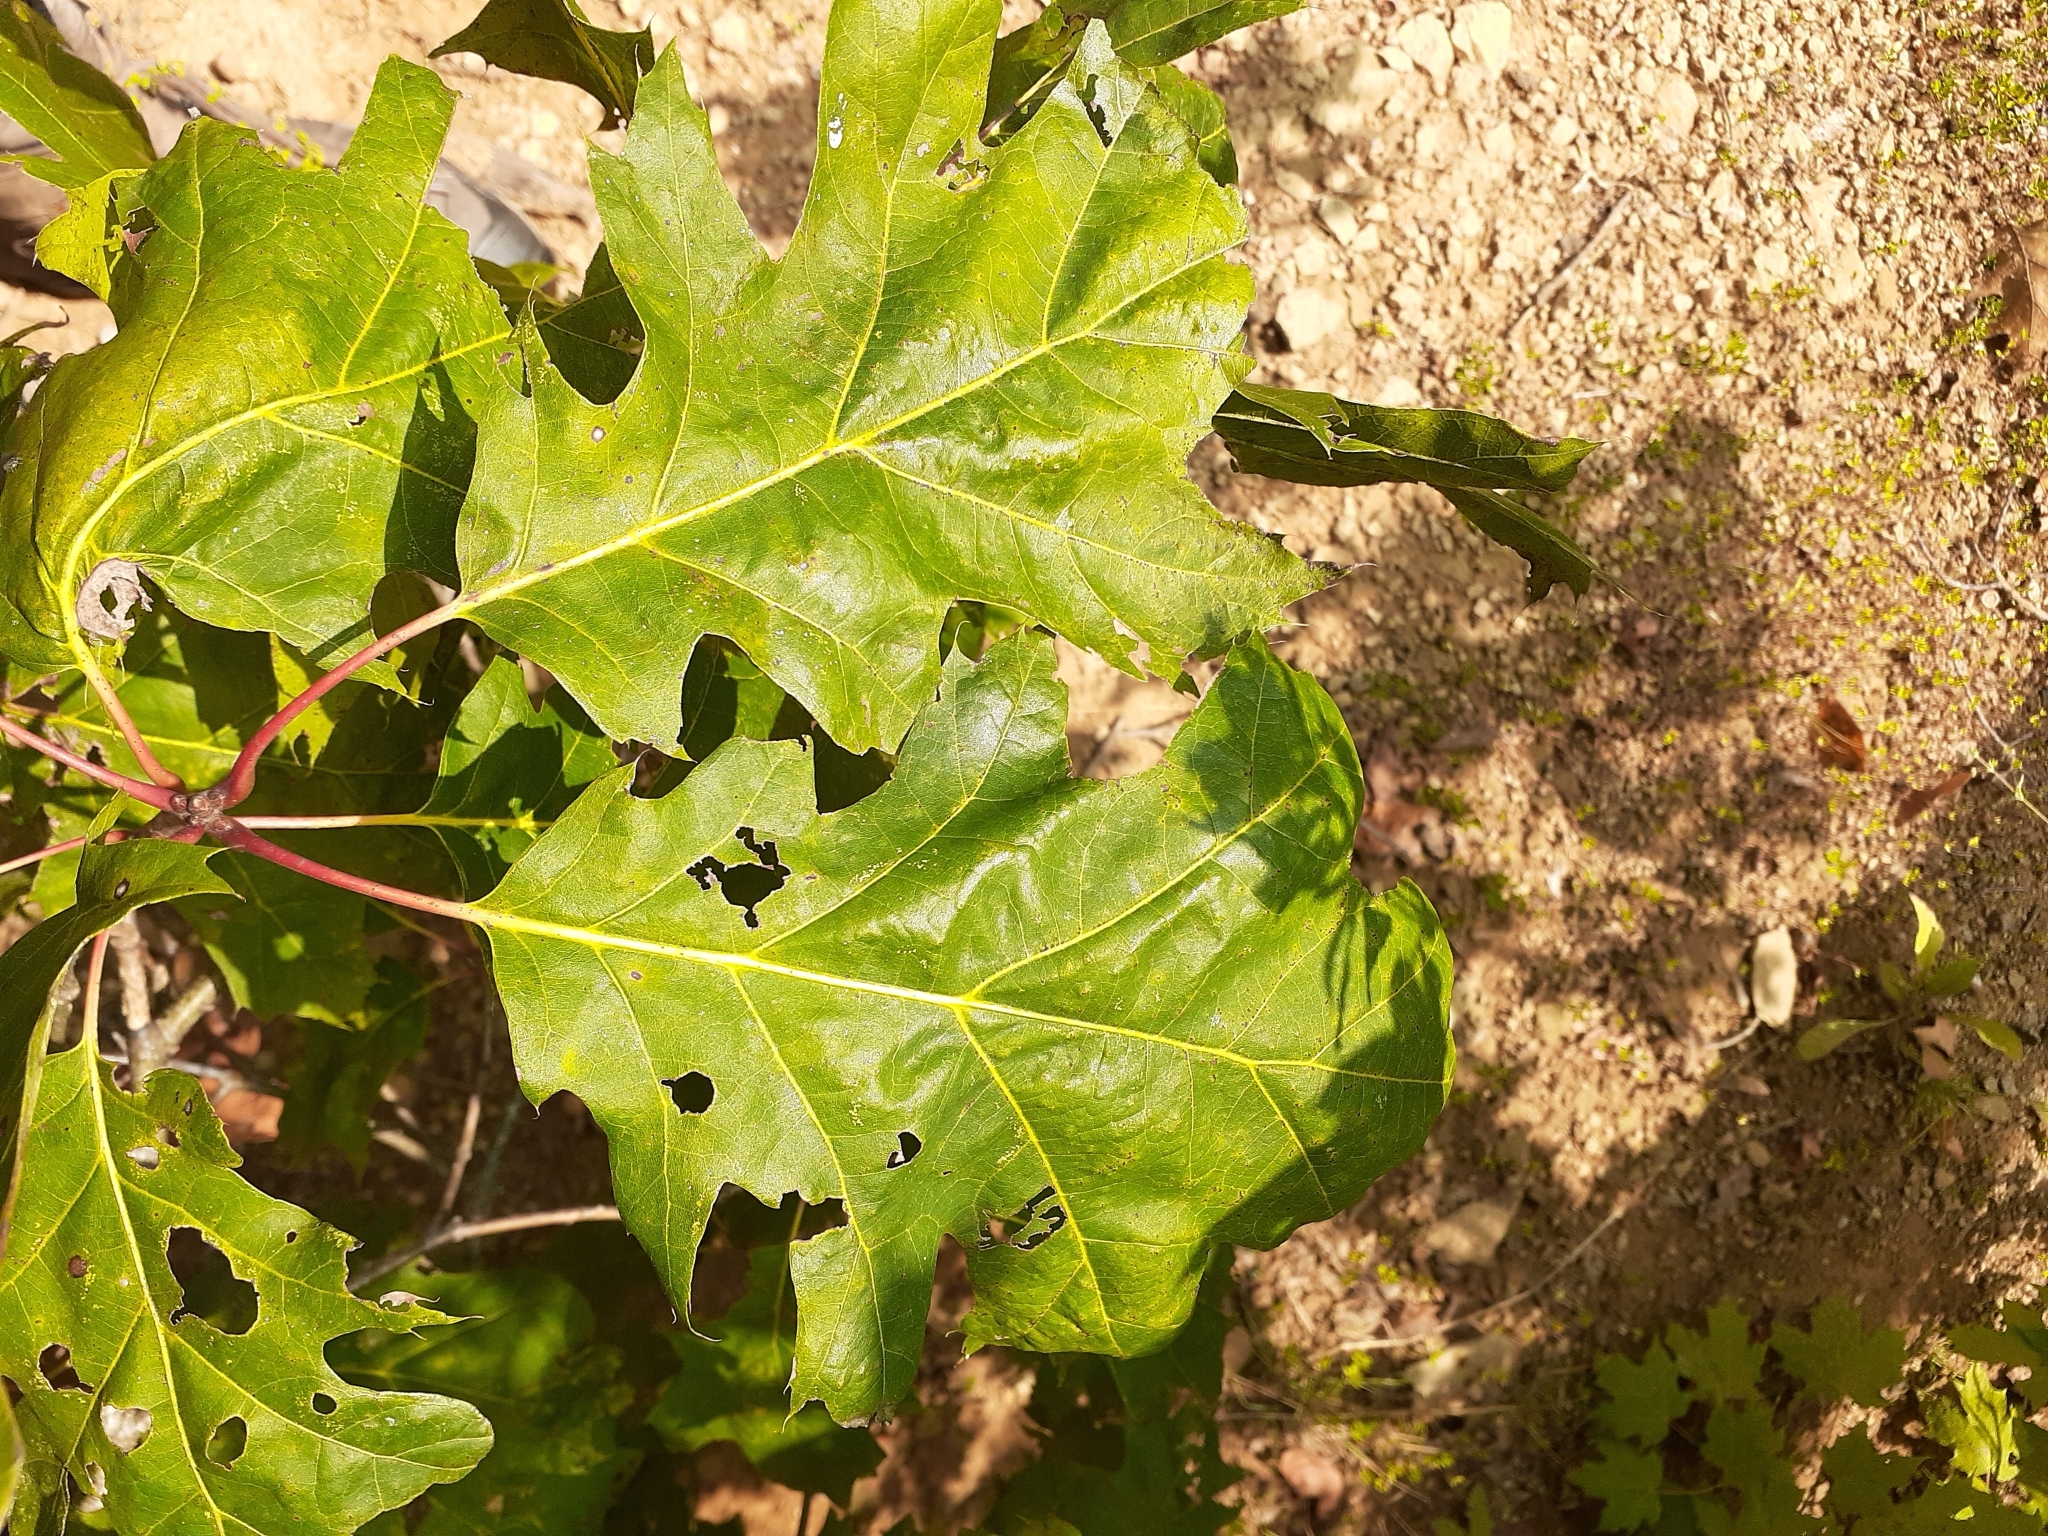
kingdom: Plantae
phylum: Tracheophyta
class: Magnoliopsida
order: Fagales
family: Fagaceae
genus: Quercus
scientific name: Quercus rubra
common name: Red oak
